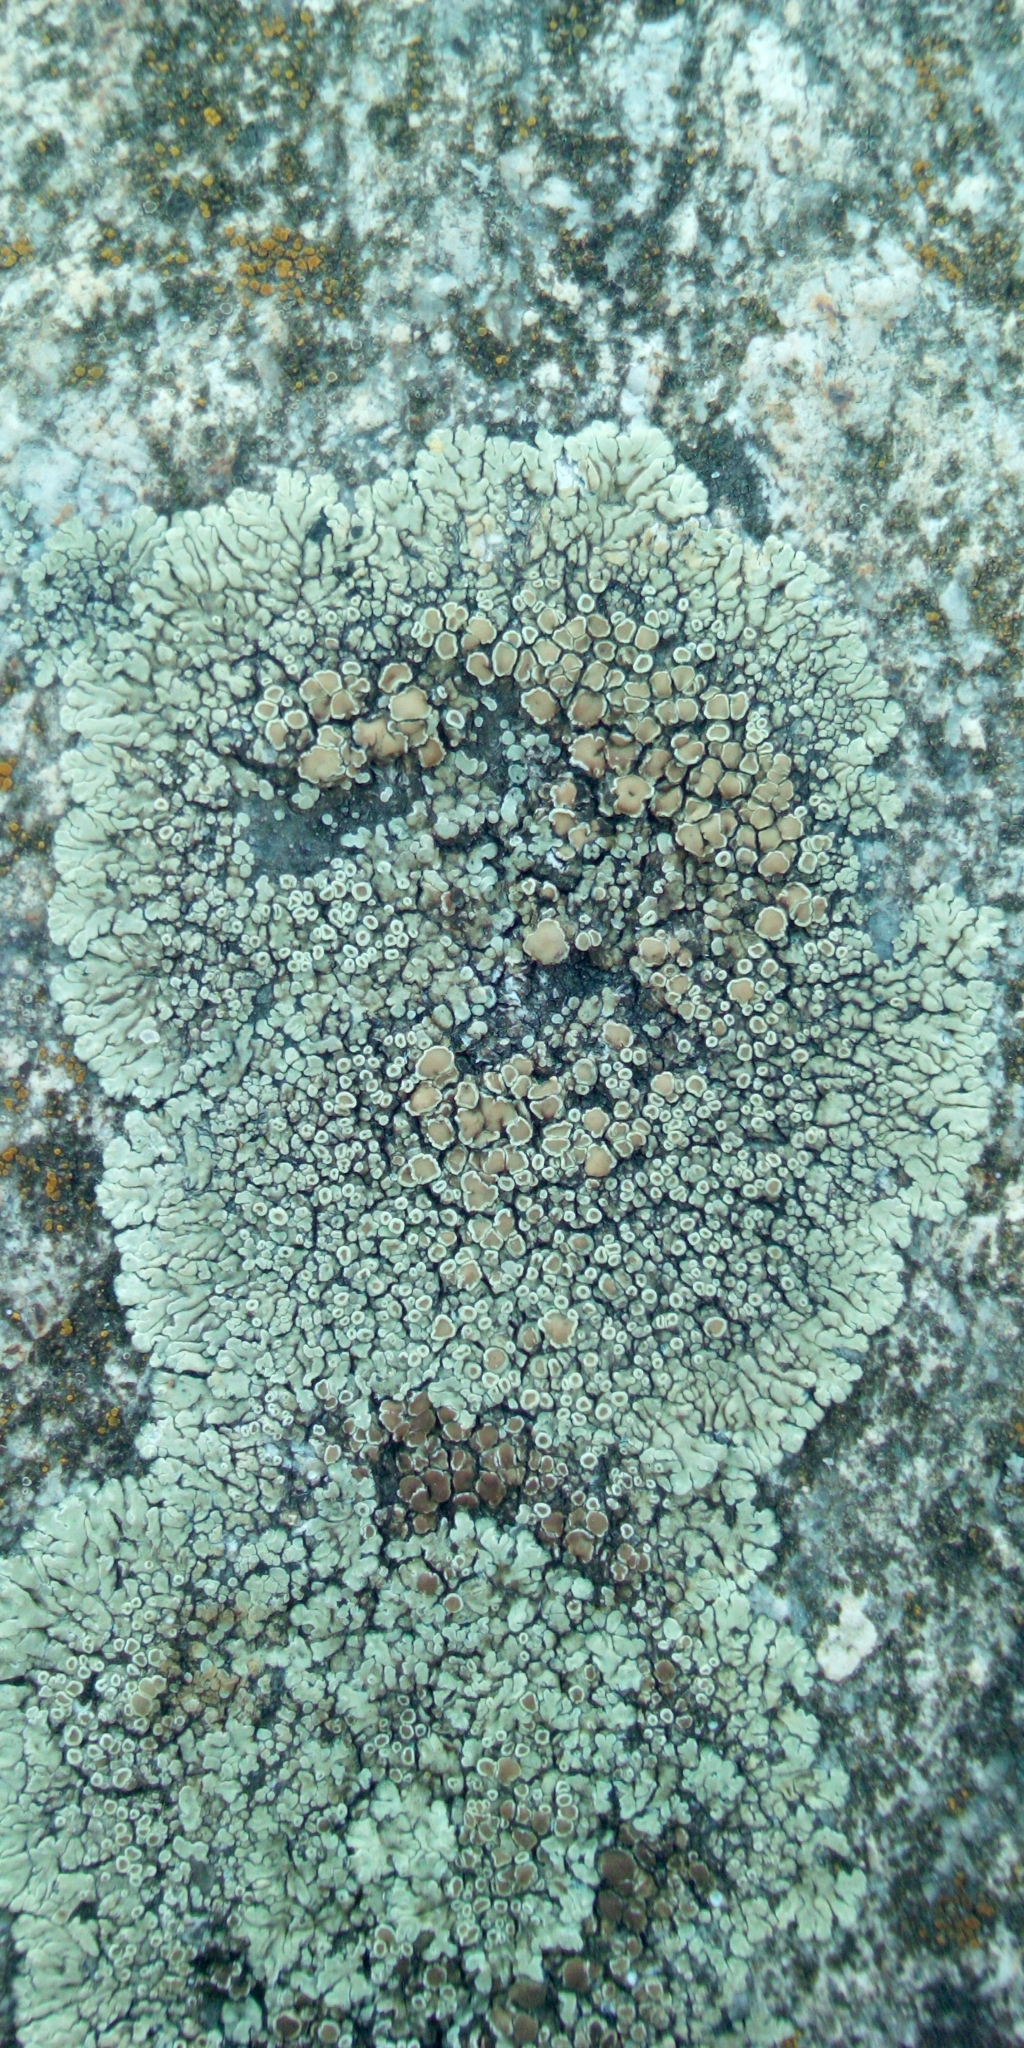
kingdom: Fungi
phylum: Ascomycota
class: Lecanoromycetes
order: Lecanorales
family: Lecanoraceae
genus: Protoparmeliopsis
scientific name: Protoparmeliopsis muralis
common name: Stonewall rim lichen
